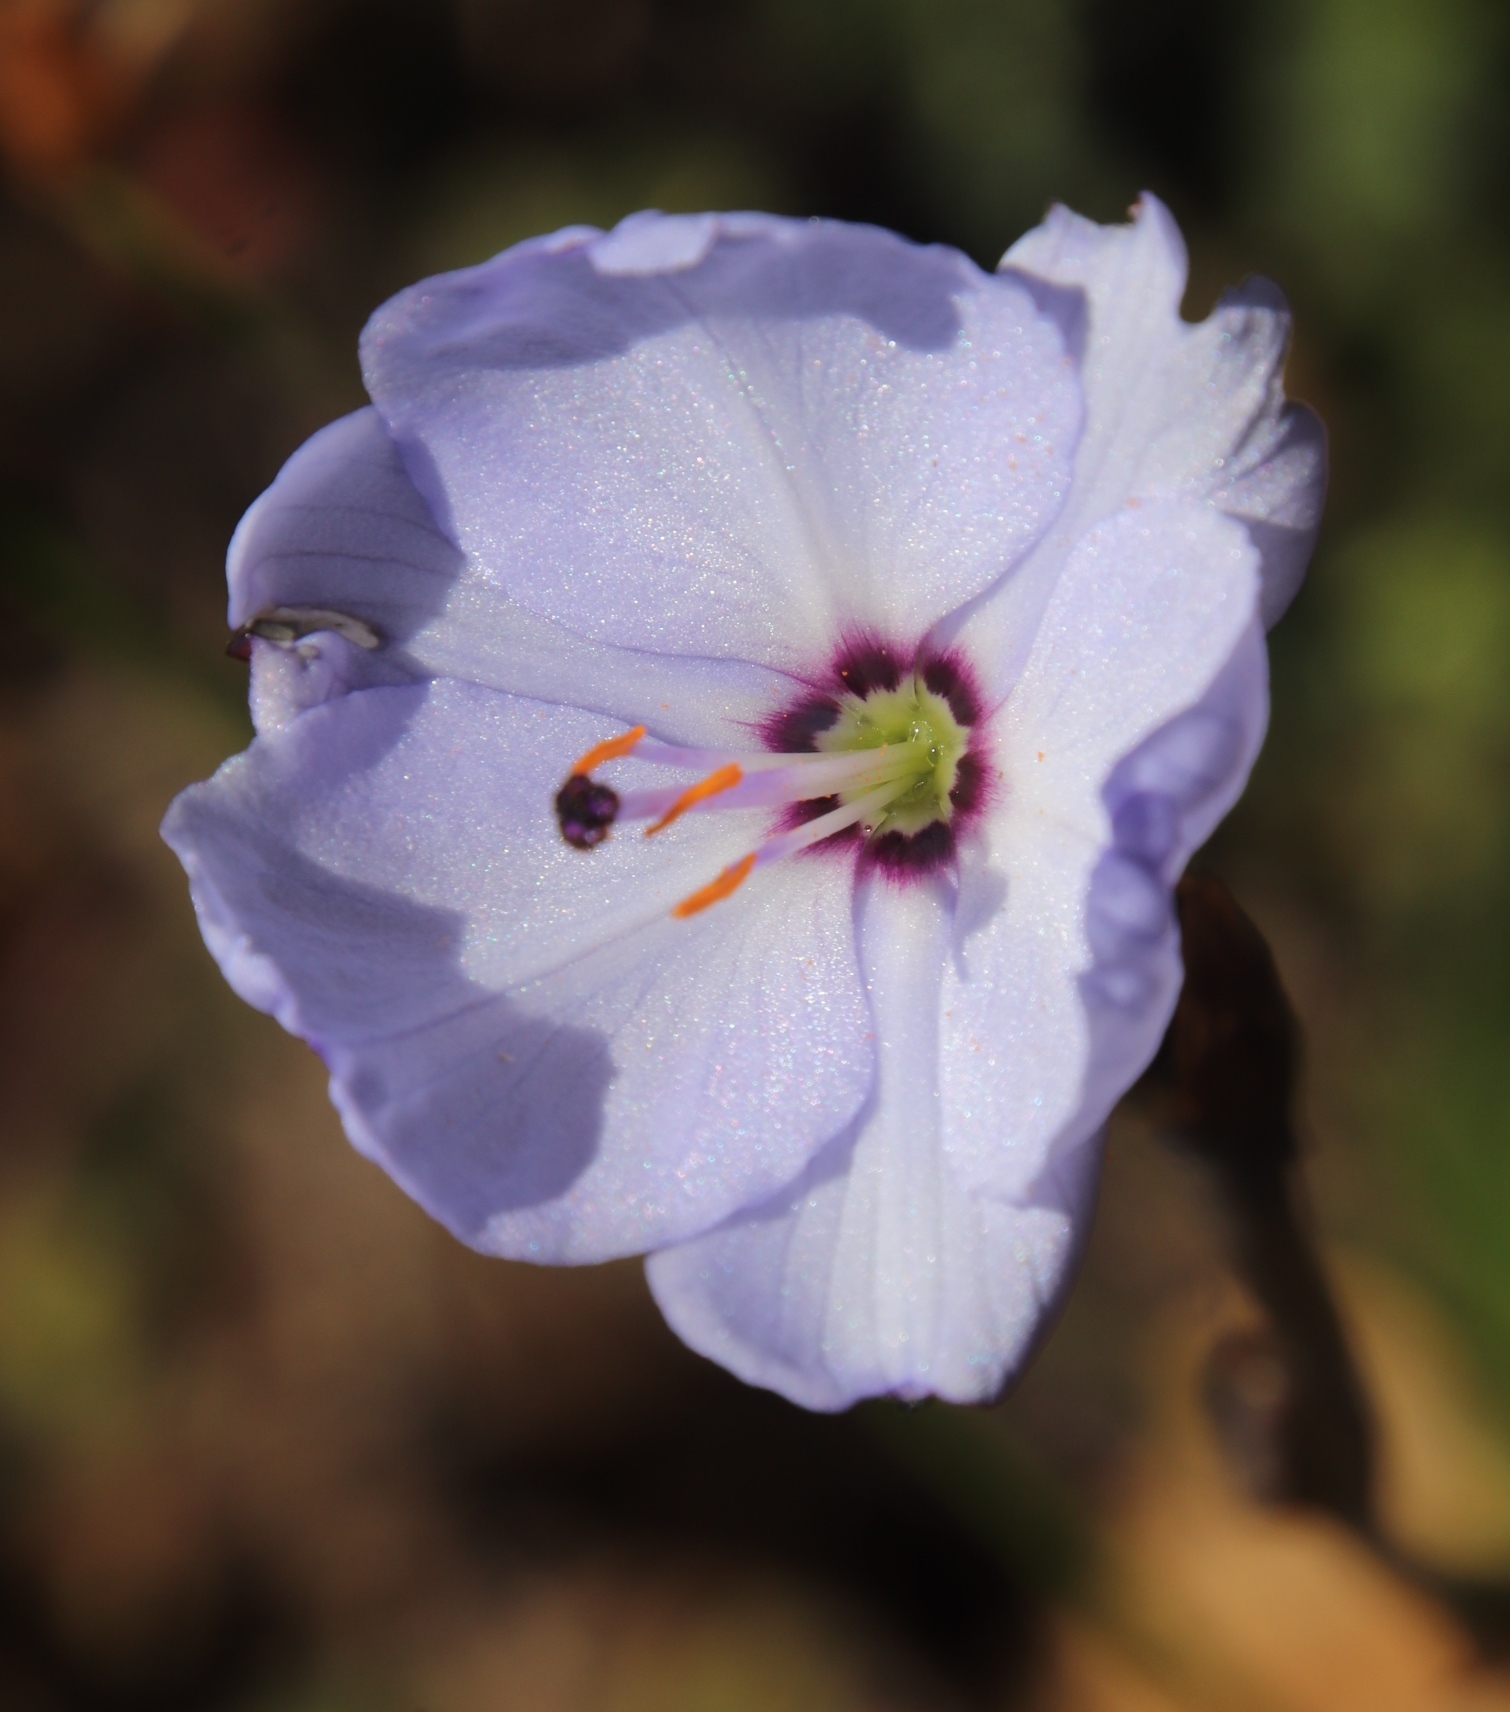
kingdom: Plantae
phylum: Tracheophyta
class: Liliopsida
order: Asparagales
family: Iridaceae
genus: Aristea
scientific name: Aristea spiralis
